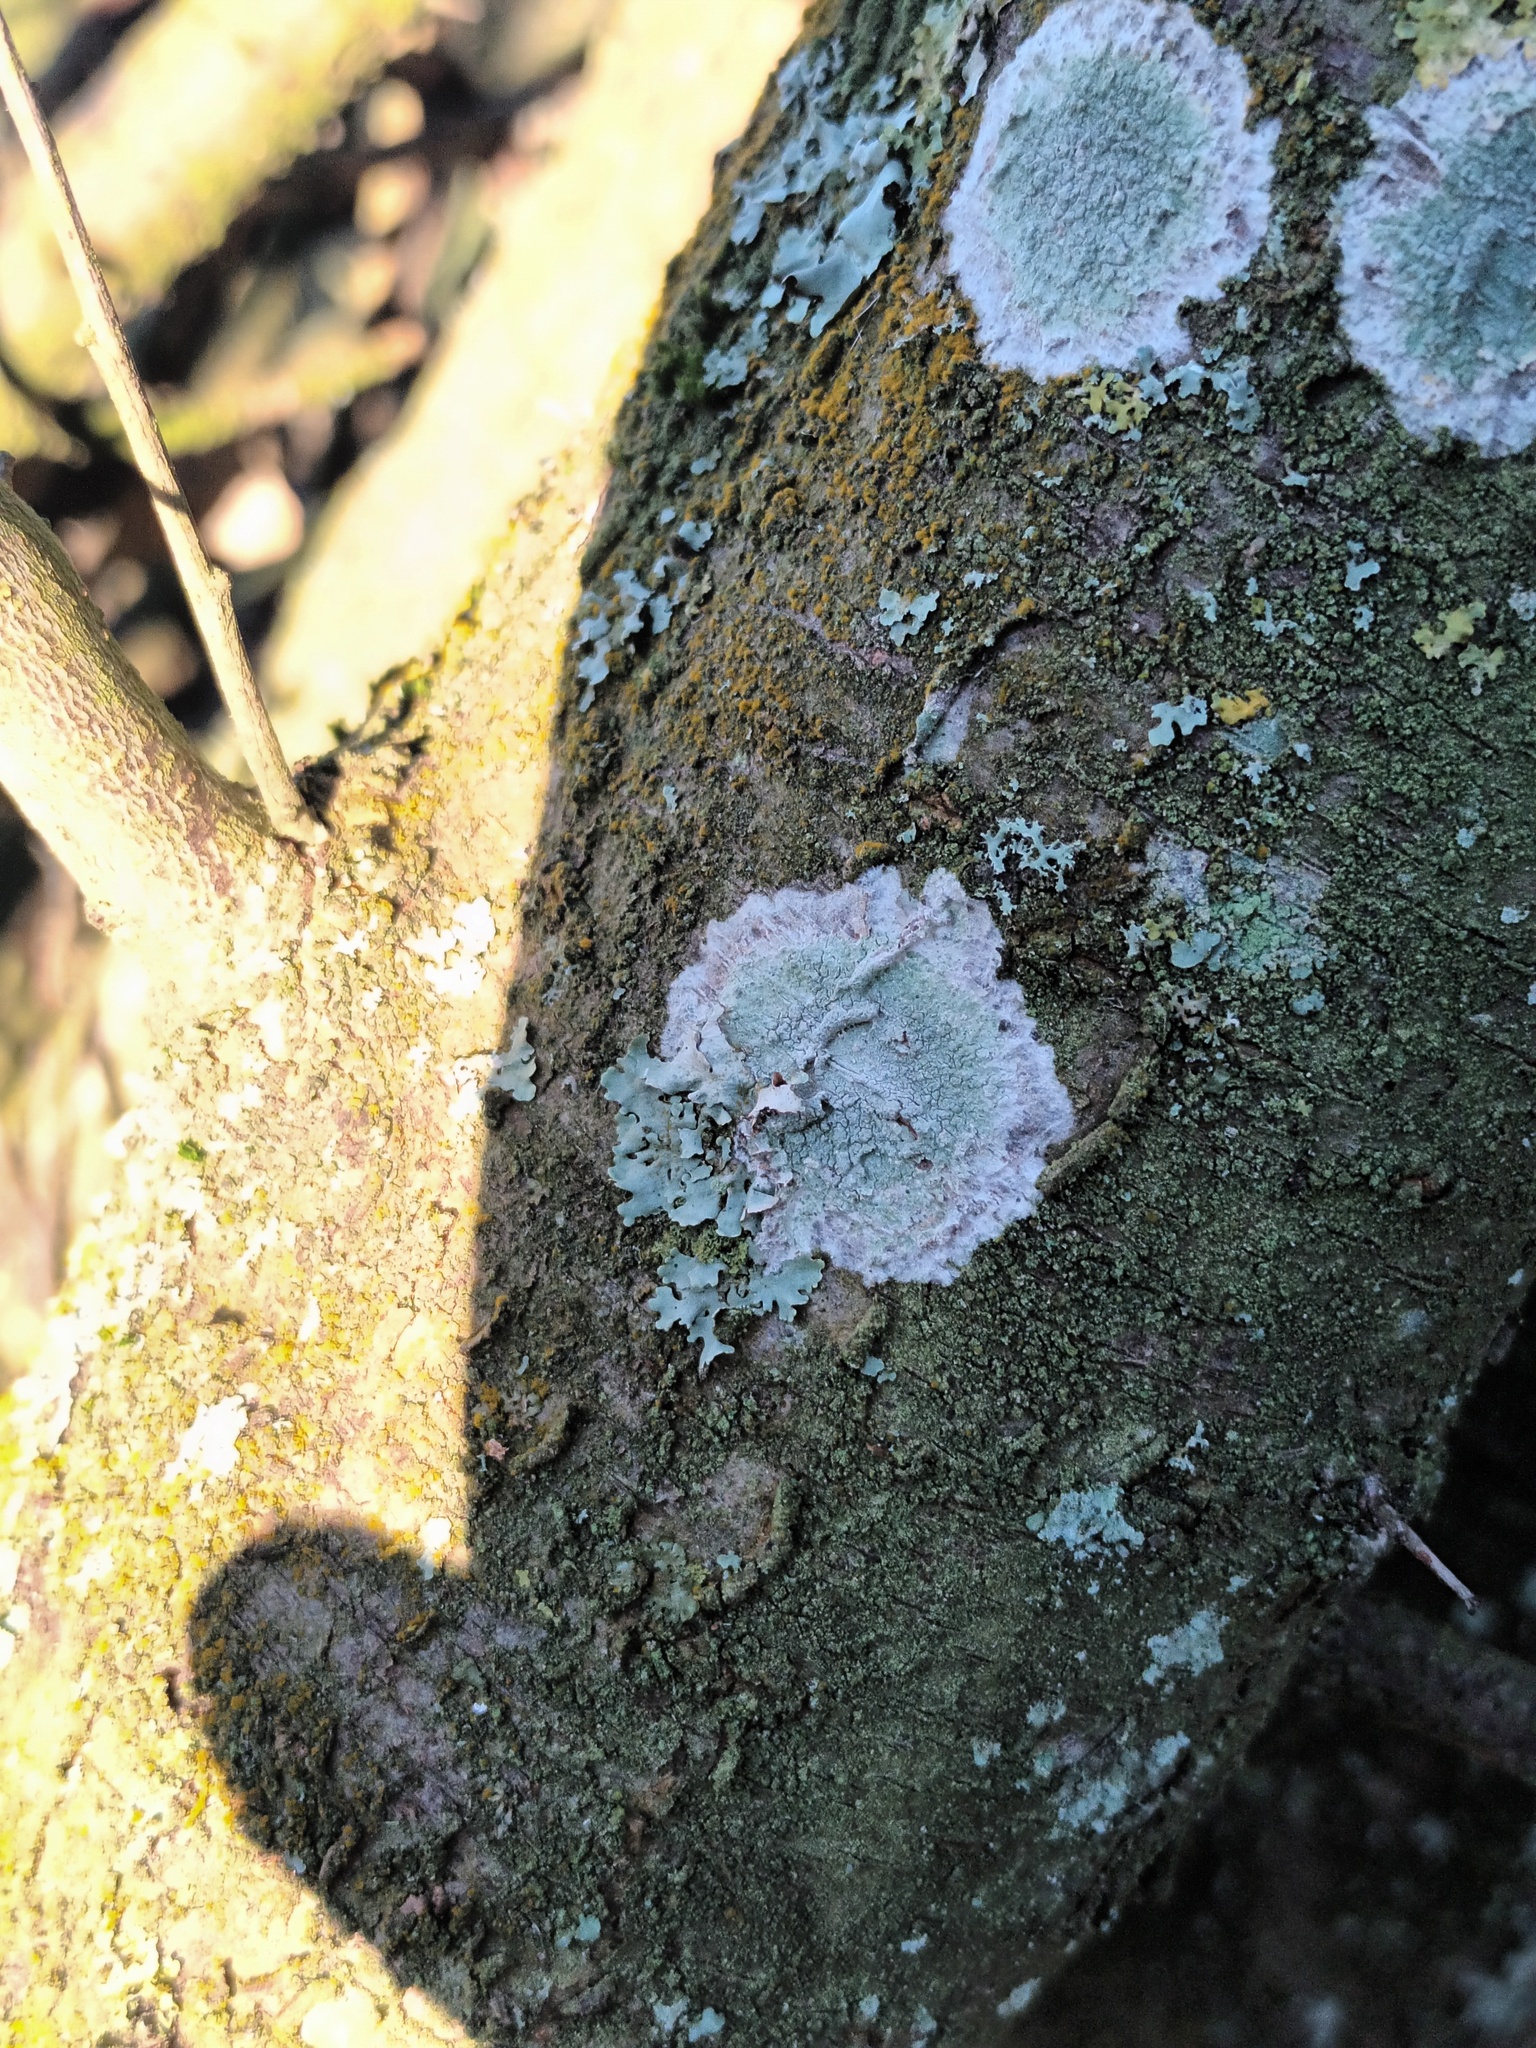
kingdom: Fungi
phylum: Ascomycota
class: Lecanoromycetes
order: Ostropales
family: Phlyctidaceae
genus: Phlyctis
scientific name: Phlyctis argena
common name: Whitewash lichen
